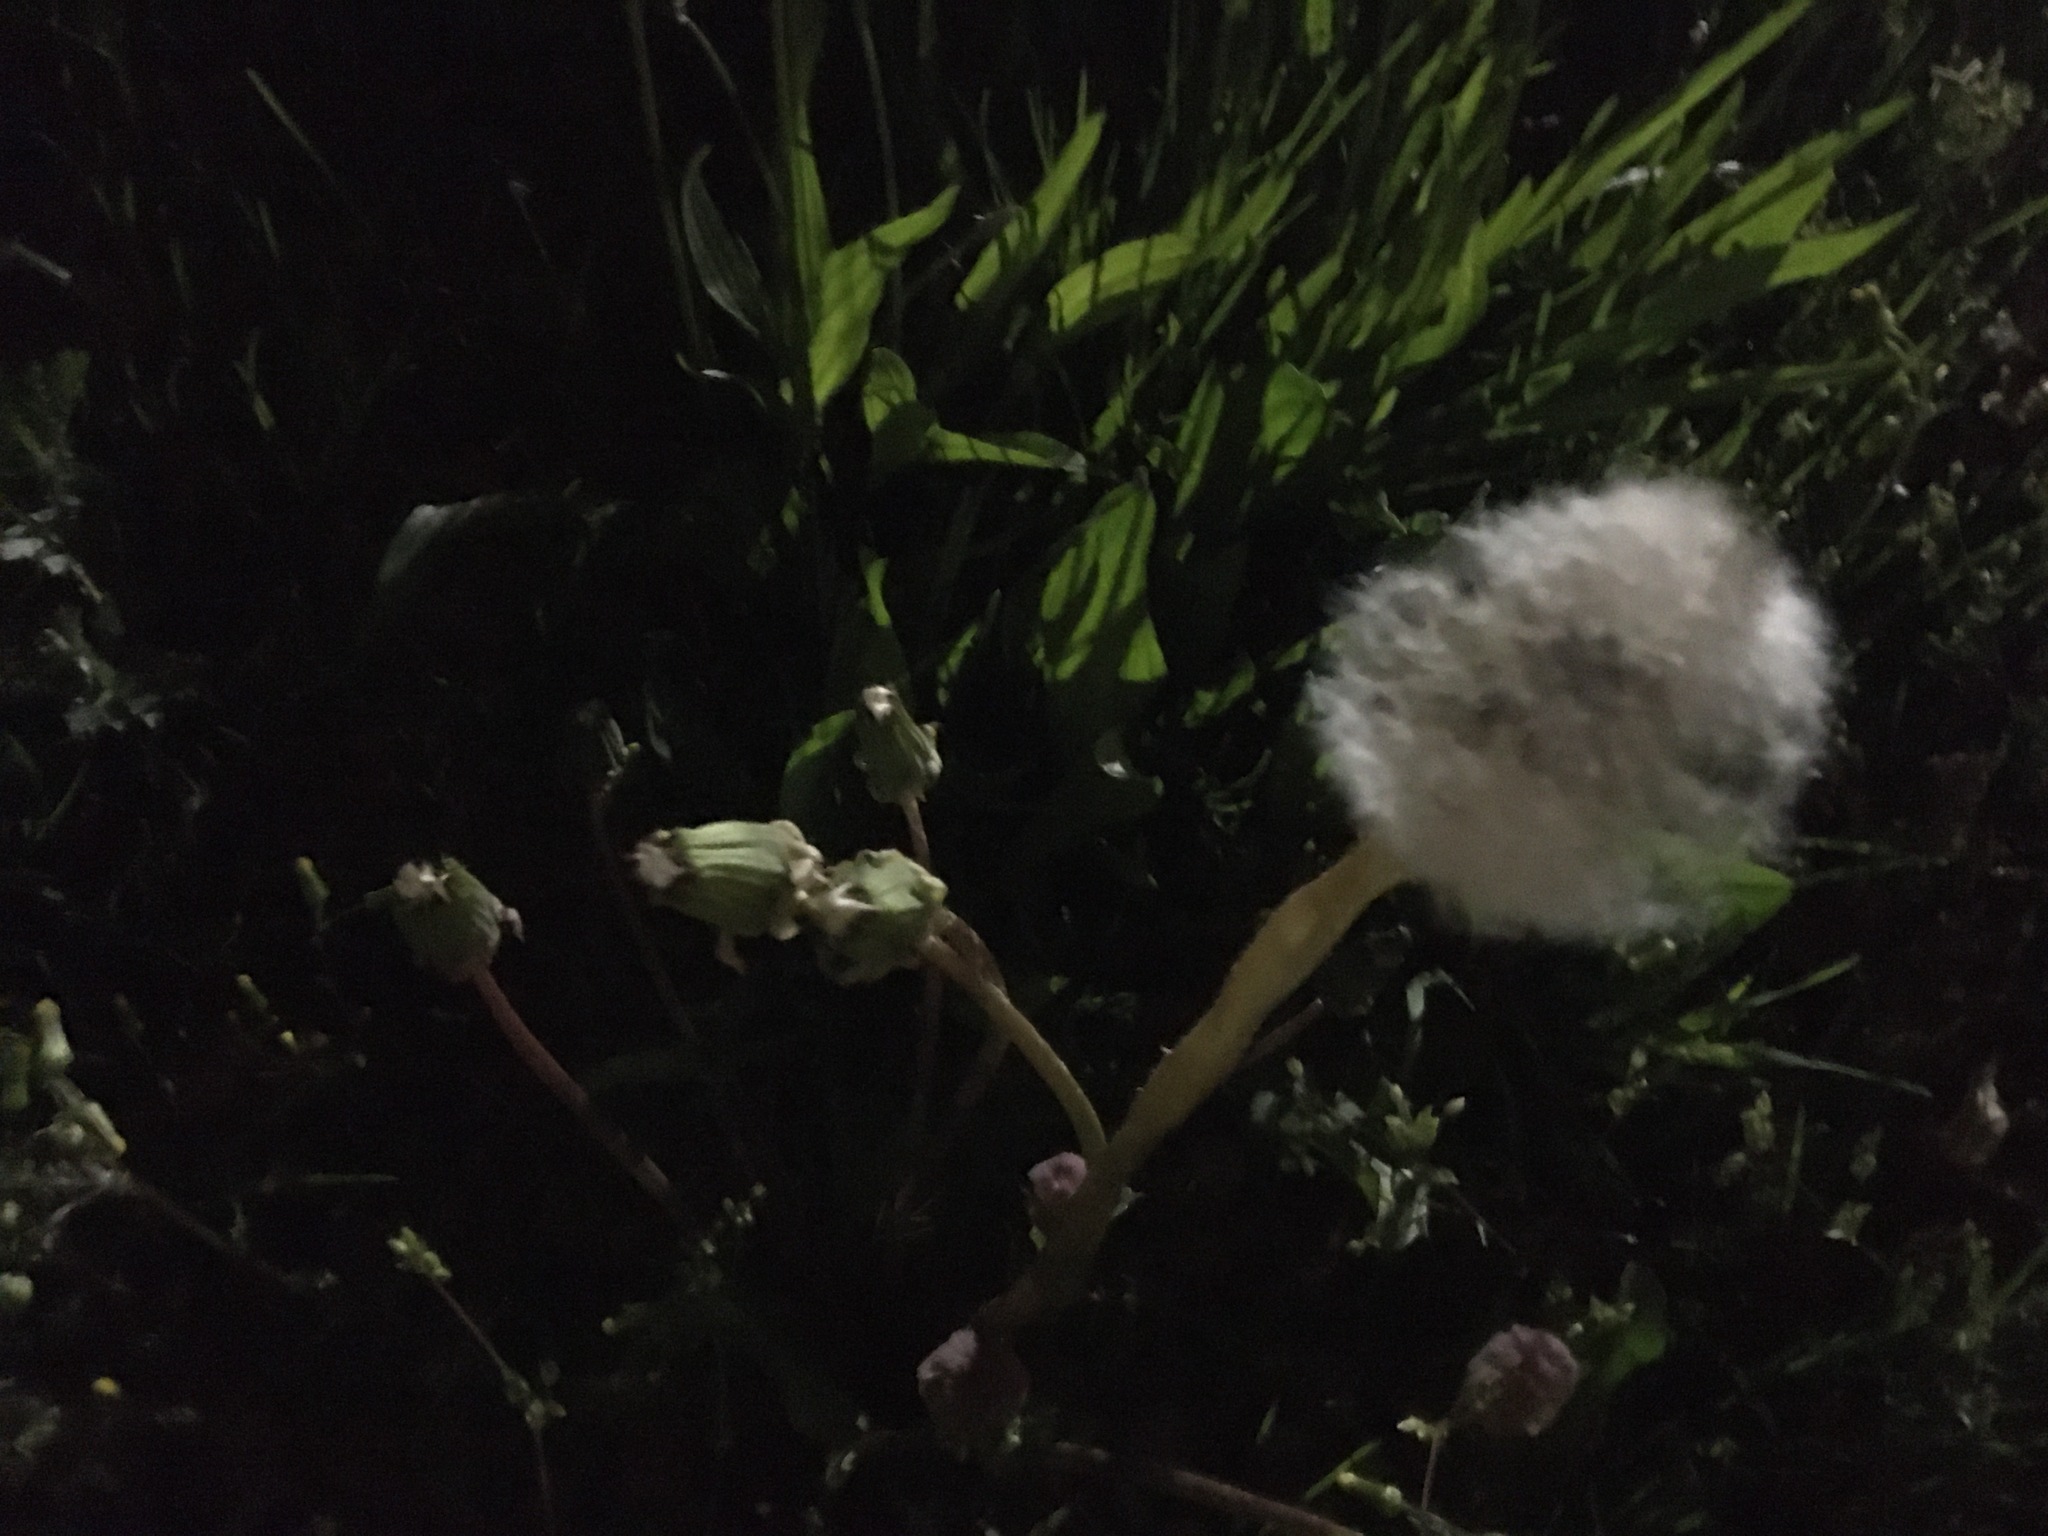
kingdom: Plantae
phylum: Tracheophyta
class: Magnoliopsida
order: Asterales
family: Asteraceae
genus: Taraxacum
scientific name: Taraxacum officinale
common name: Common dandelion
